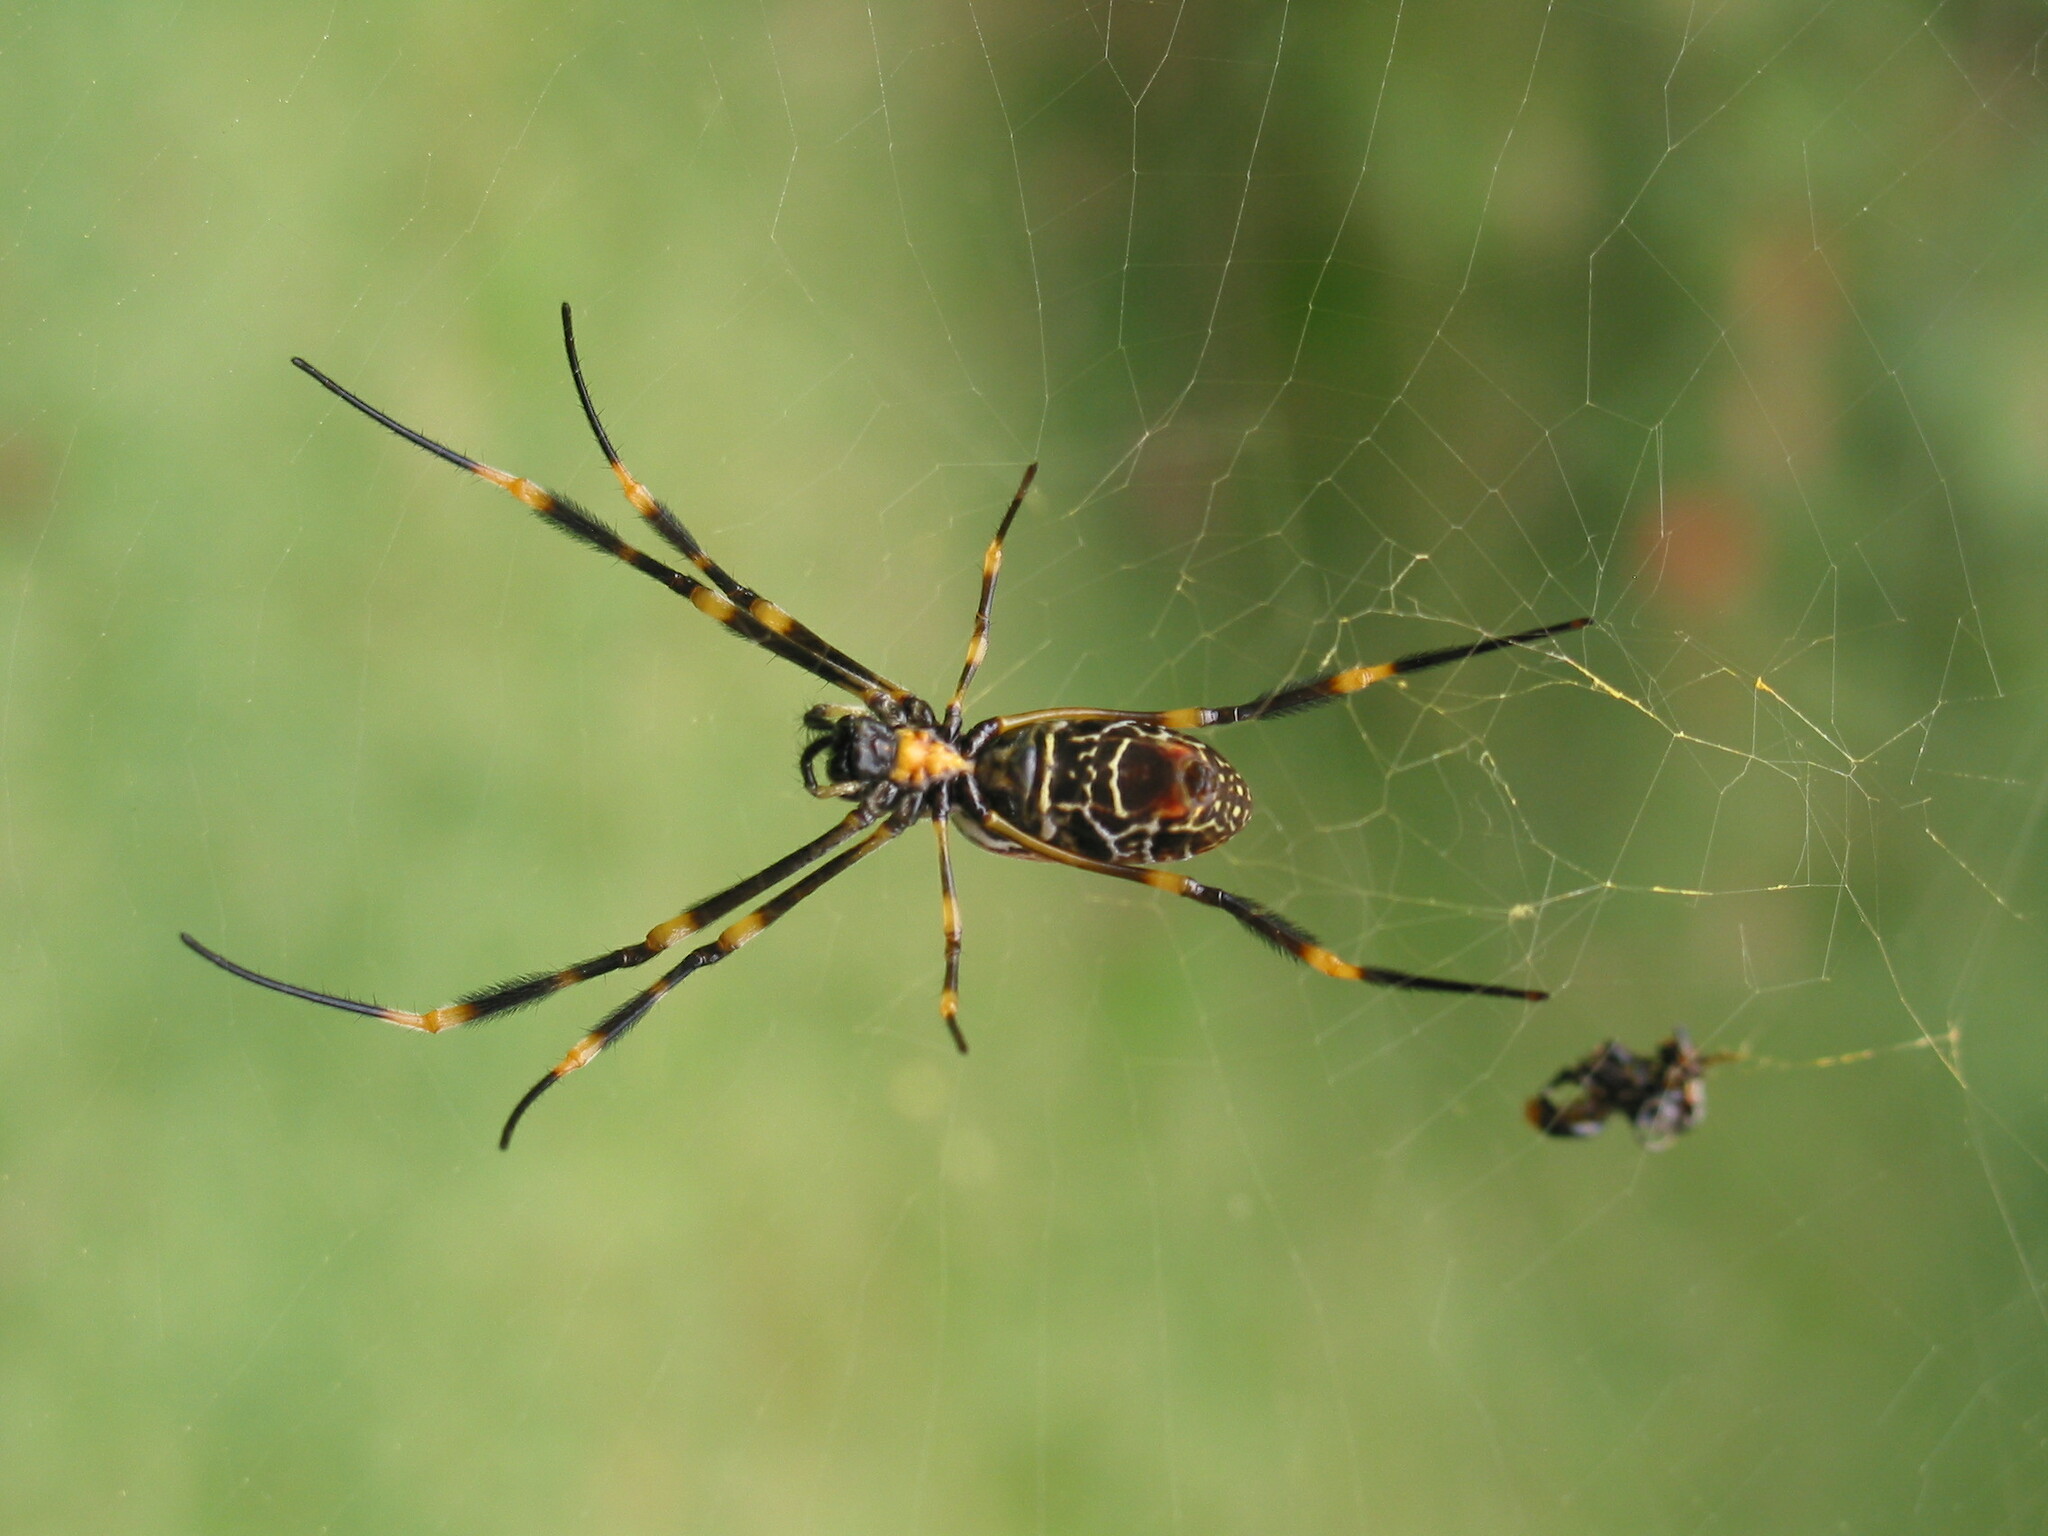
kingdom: Animalia
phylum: Arthropoda
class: Arachnida
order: Araneae
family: Araneidae
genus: Trichonephila
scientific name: Trichonephila plumipes
